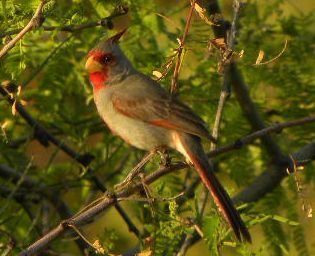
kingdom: Animalia
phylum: Chordata
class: Aves
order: Passeriformes
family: Cardinalidae
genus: Cardinalis
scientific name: Cardinalis sinuatus
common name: Pyrrhuloxia
